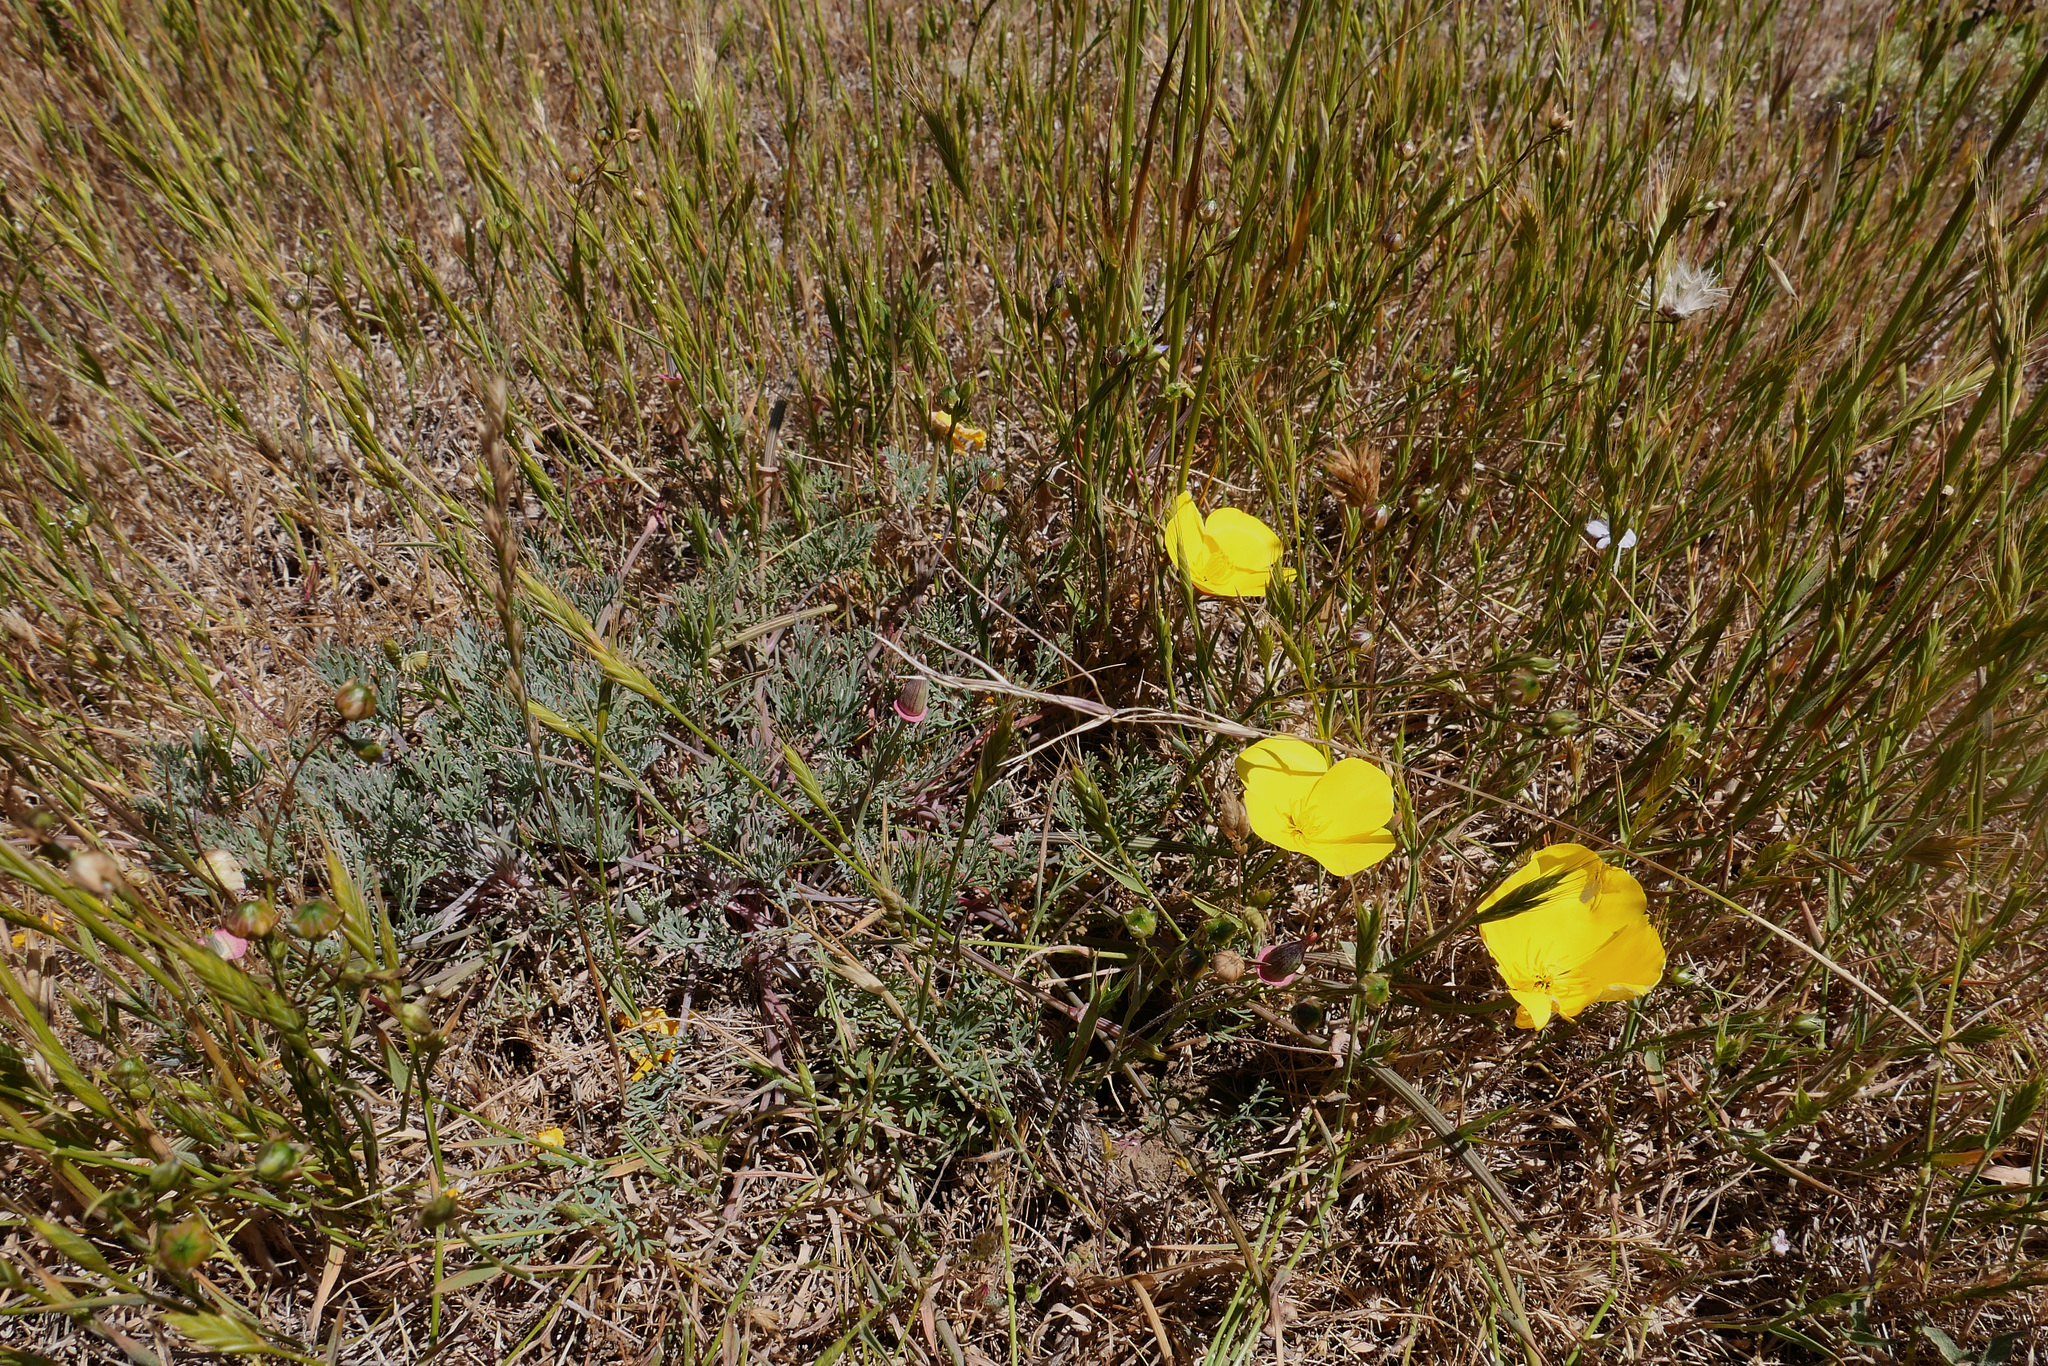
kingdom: Plantae
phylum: Tracheophyta
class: Magnoliopsida
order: Ranunculales
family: Papaveraceae
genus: Eschscholzia
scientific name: Eschscholzia californica
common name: California poppy
